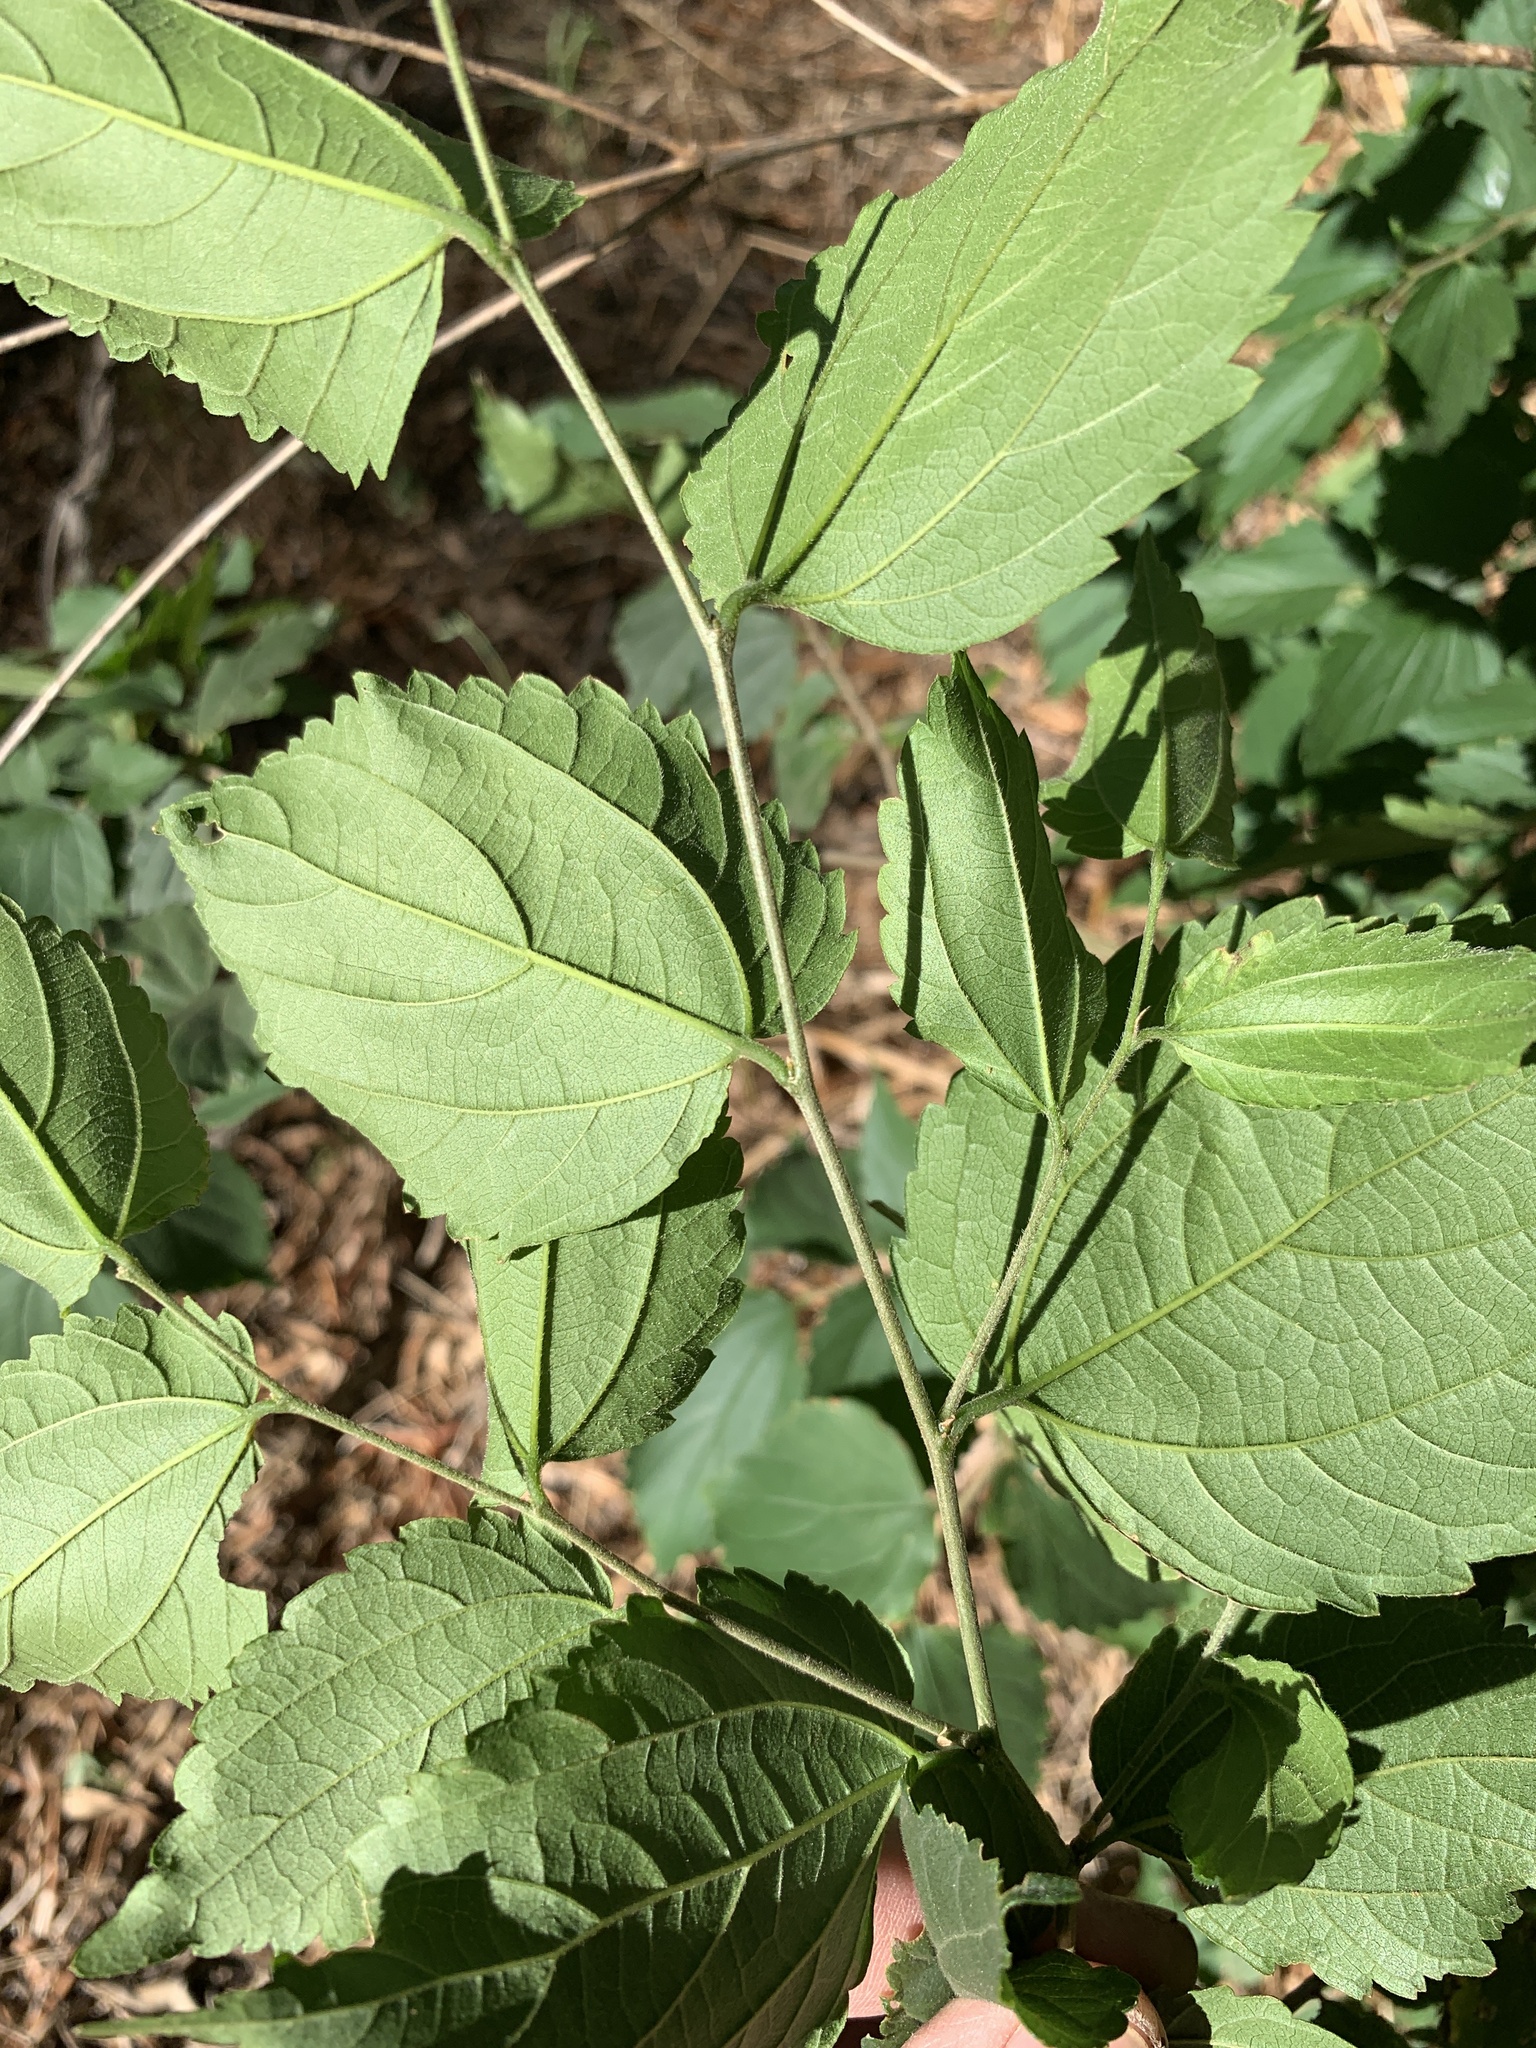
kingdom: Plantae
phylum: Tracheophyta
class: Magnoliopsida
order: Rosales
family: Cannabaceae
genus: Celtis
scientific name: Celtis africana
